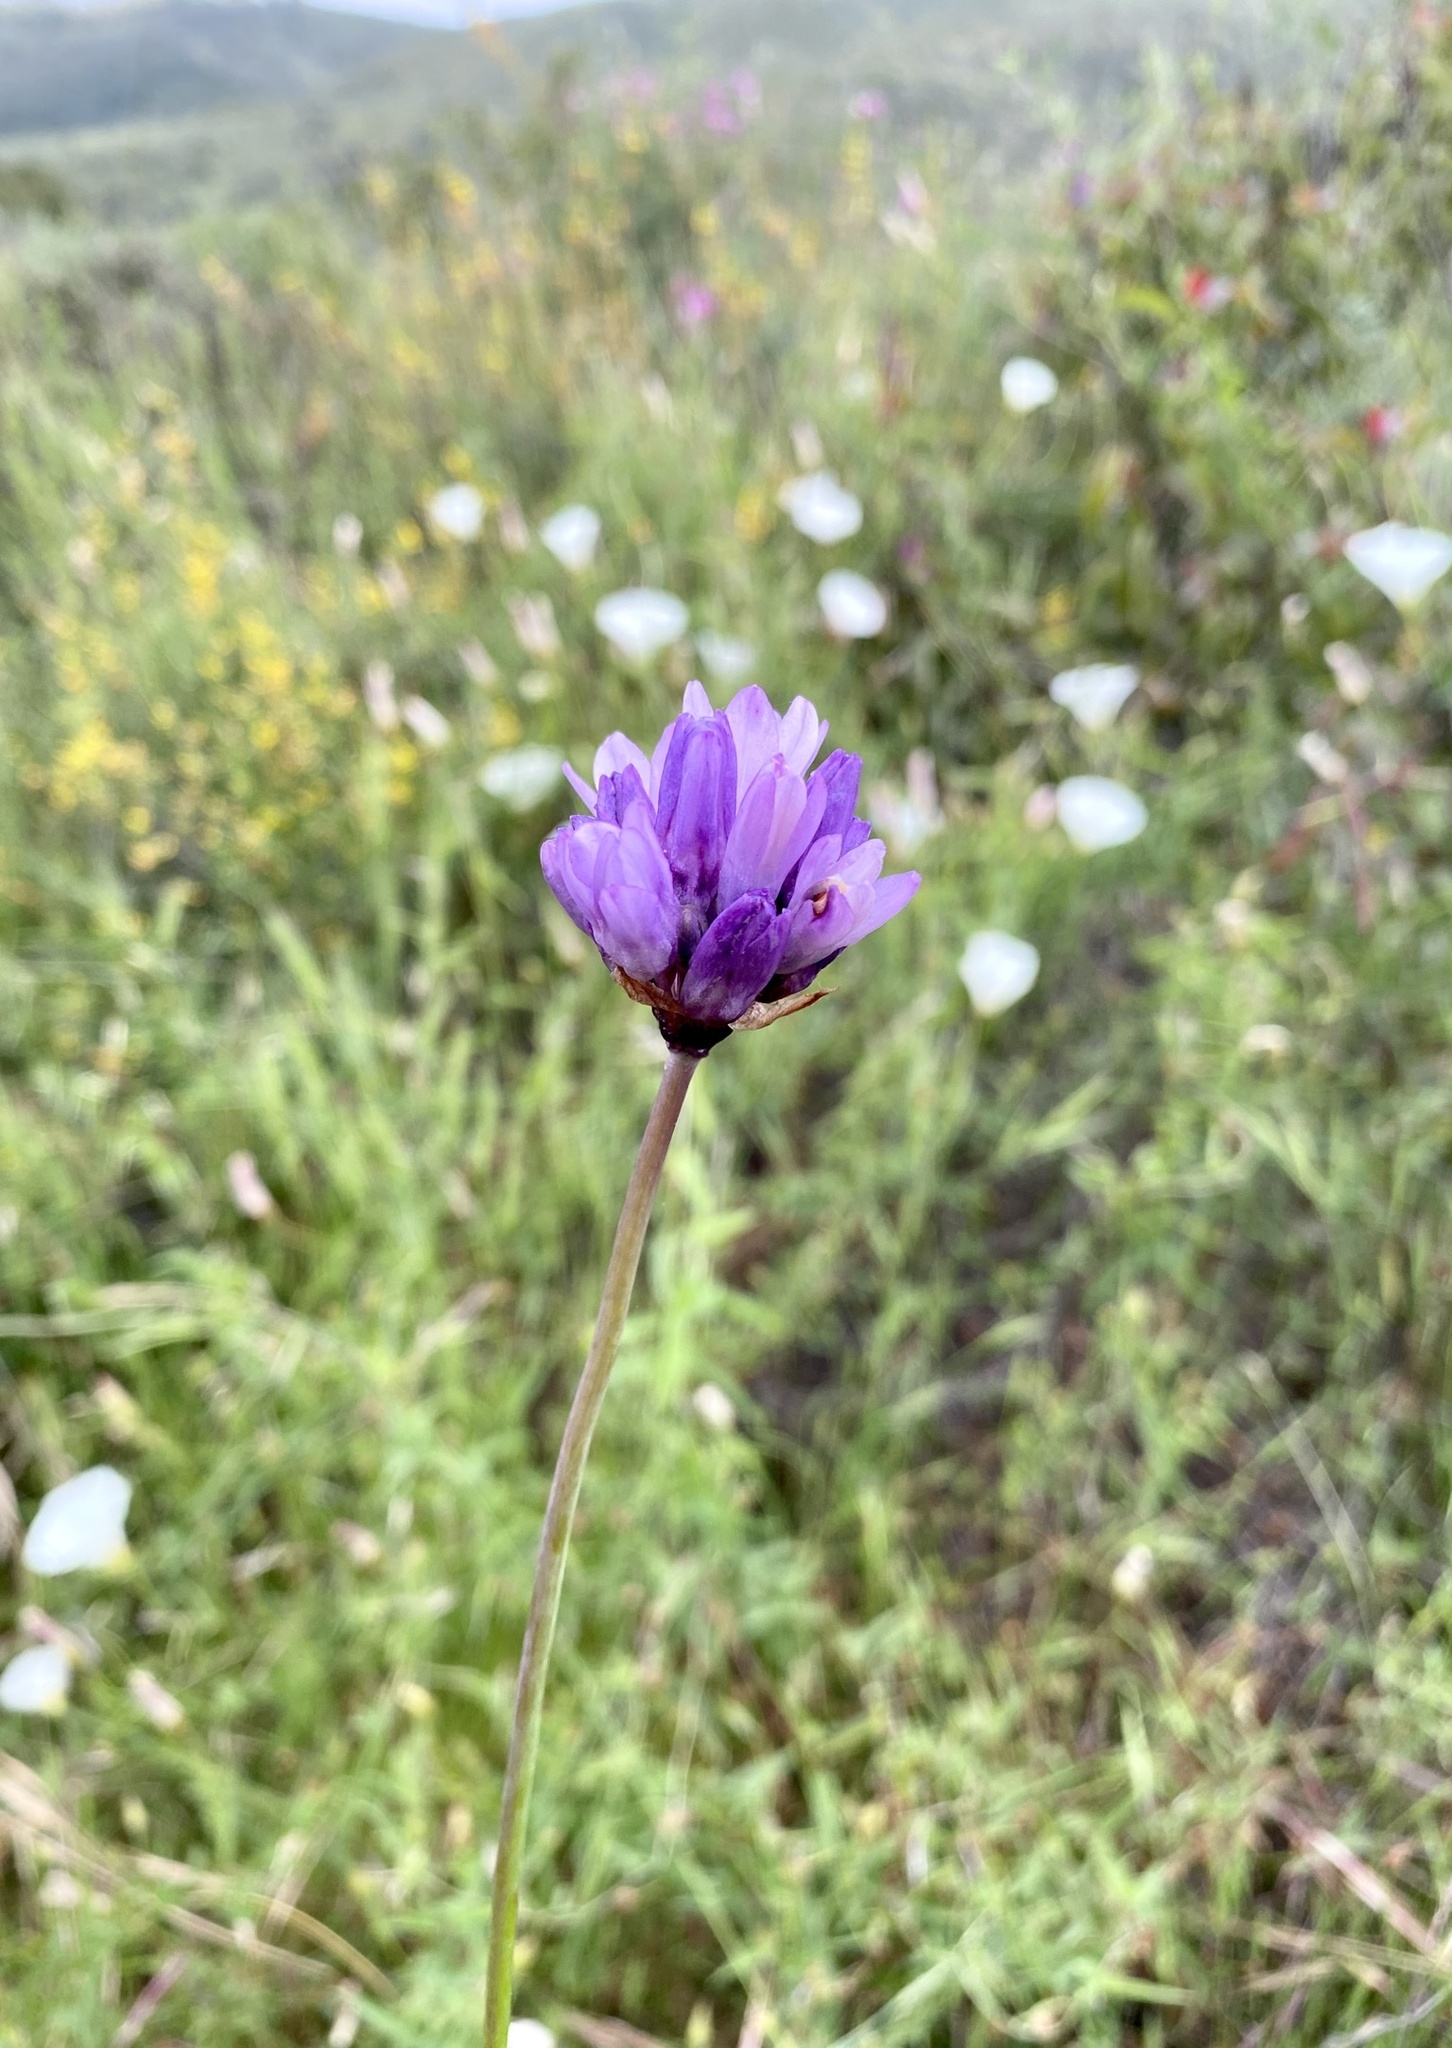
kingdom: Plantae
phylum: Tracheophyta
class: Liliopsida
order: Asparagales
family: Asparagaceae
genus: Dipterostemon
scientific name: Dipterostemon capitatus
